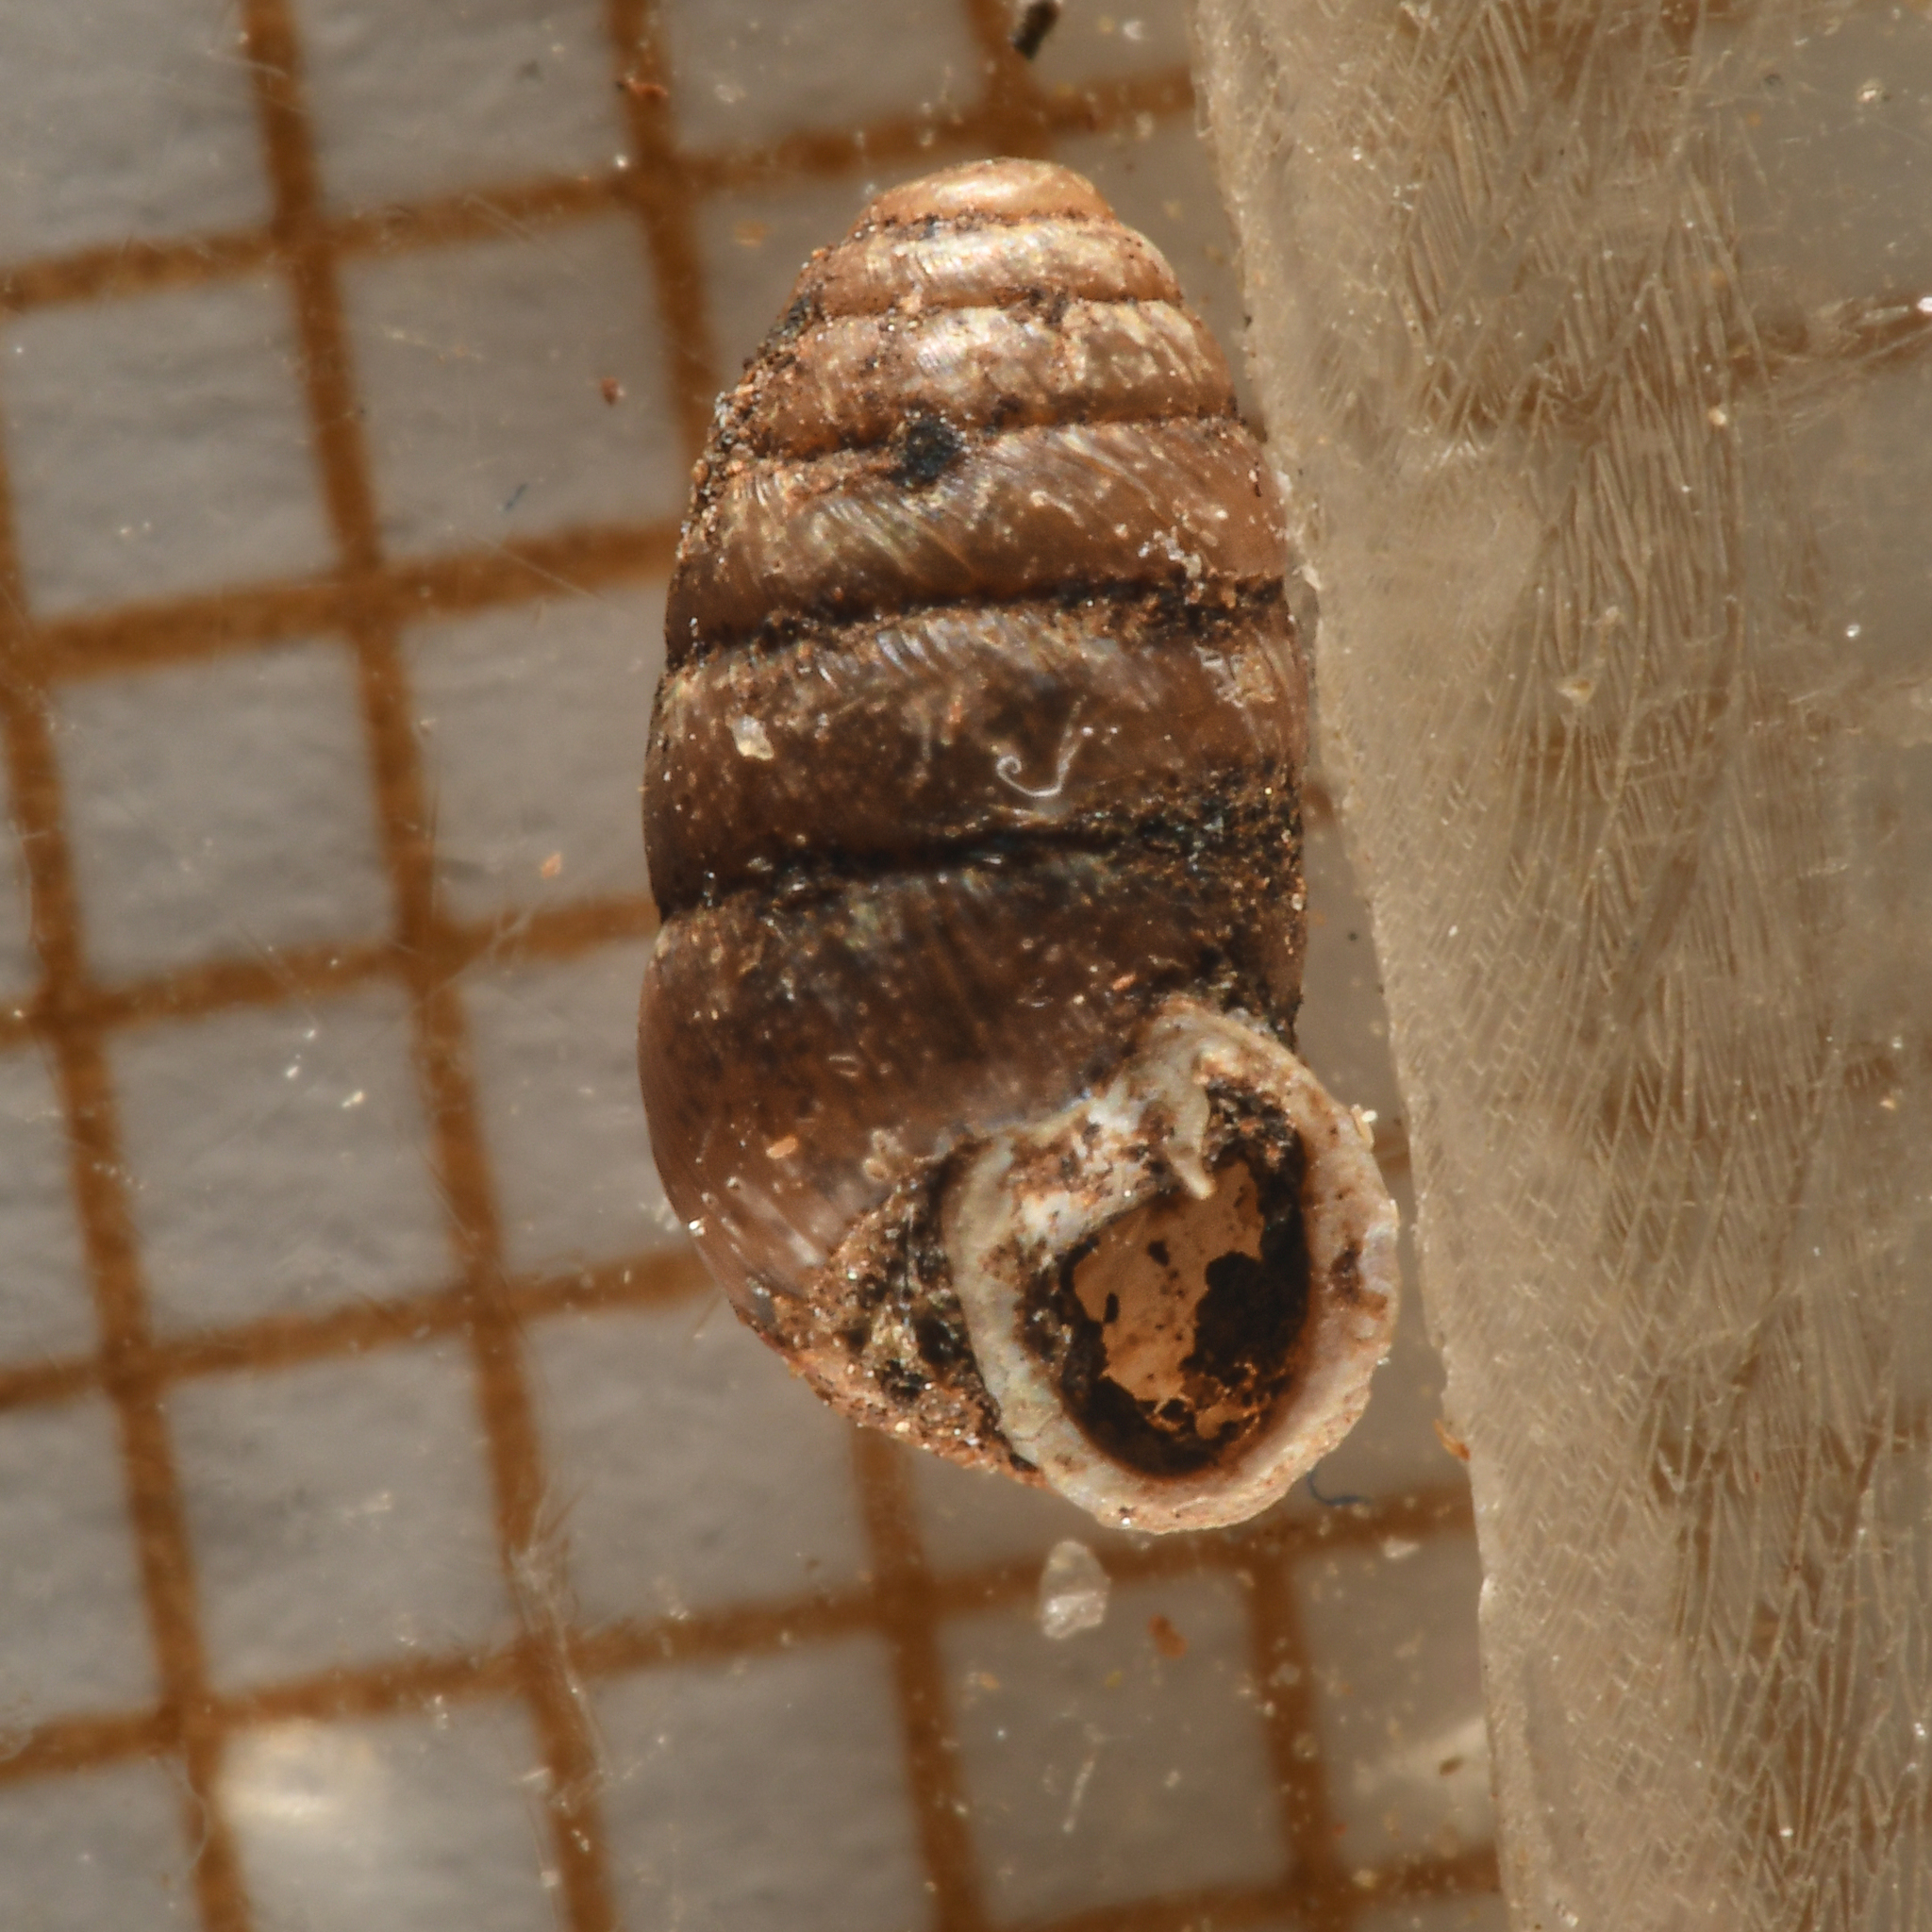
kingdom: Animalia
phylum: Mollusca
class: Gastropoda
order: Stylommatophora
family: Lauriidae
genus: Lauria
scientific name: Lauria cylindracea
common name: Common chrysalis snail
